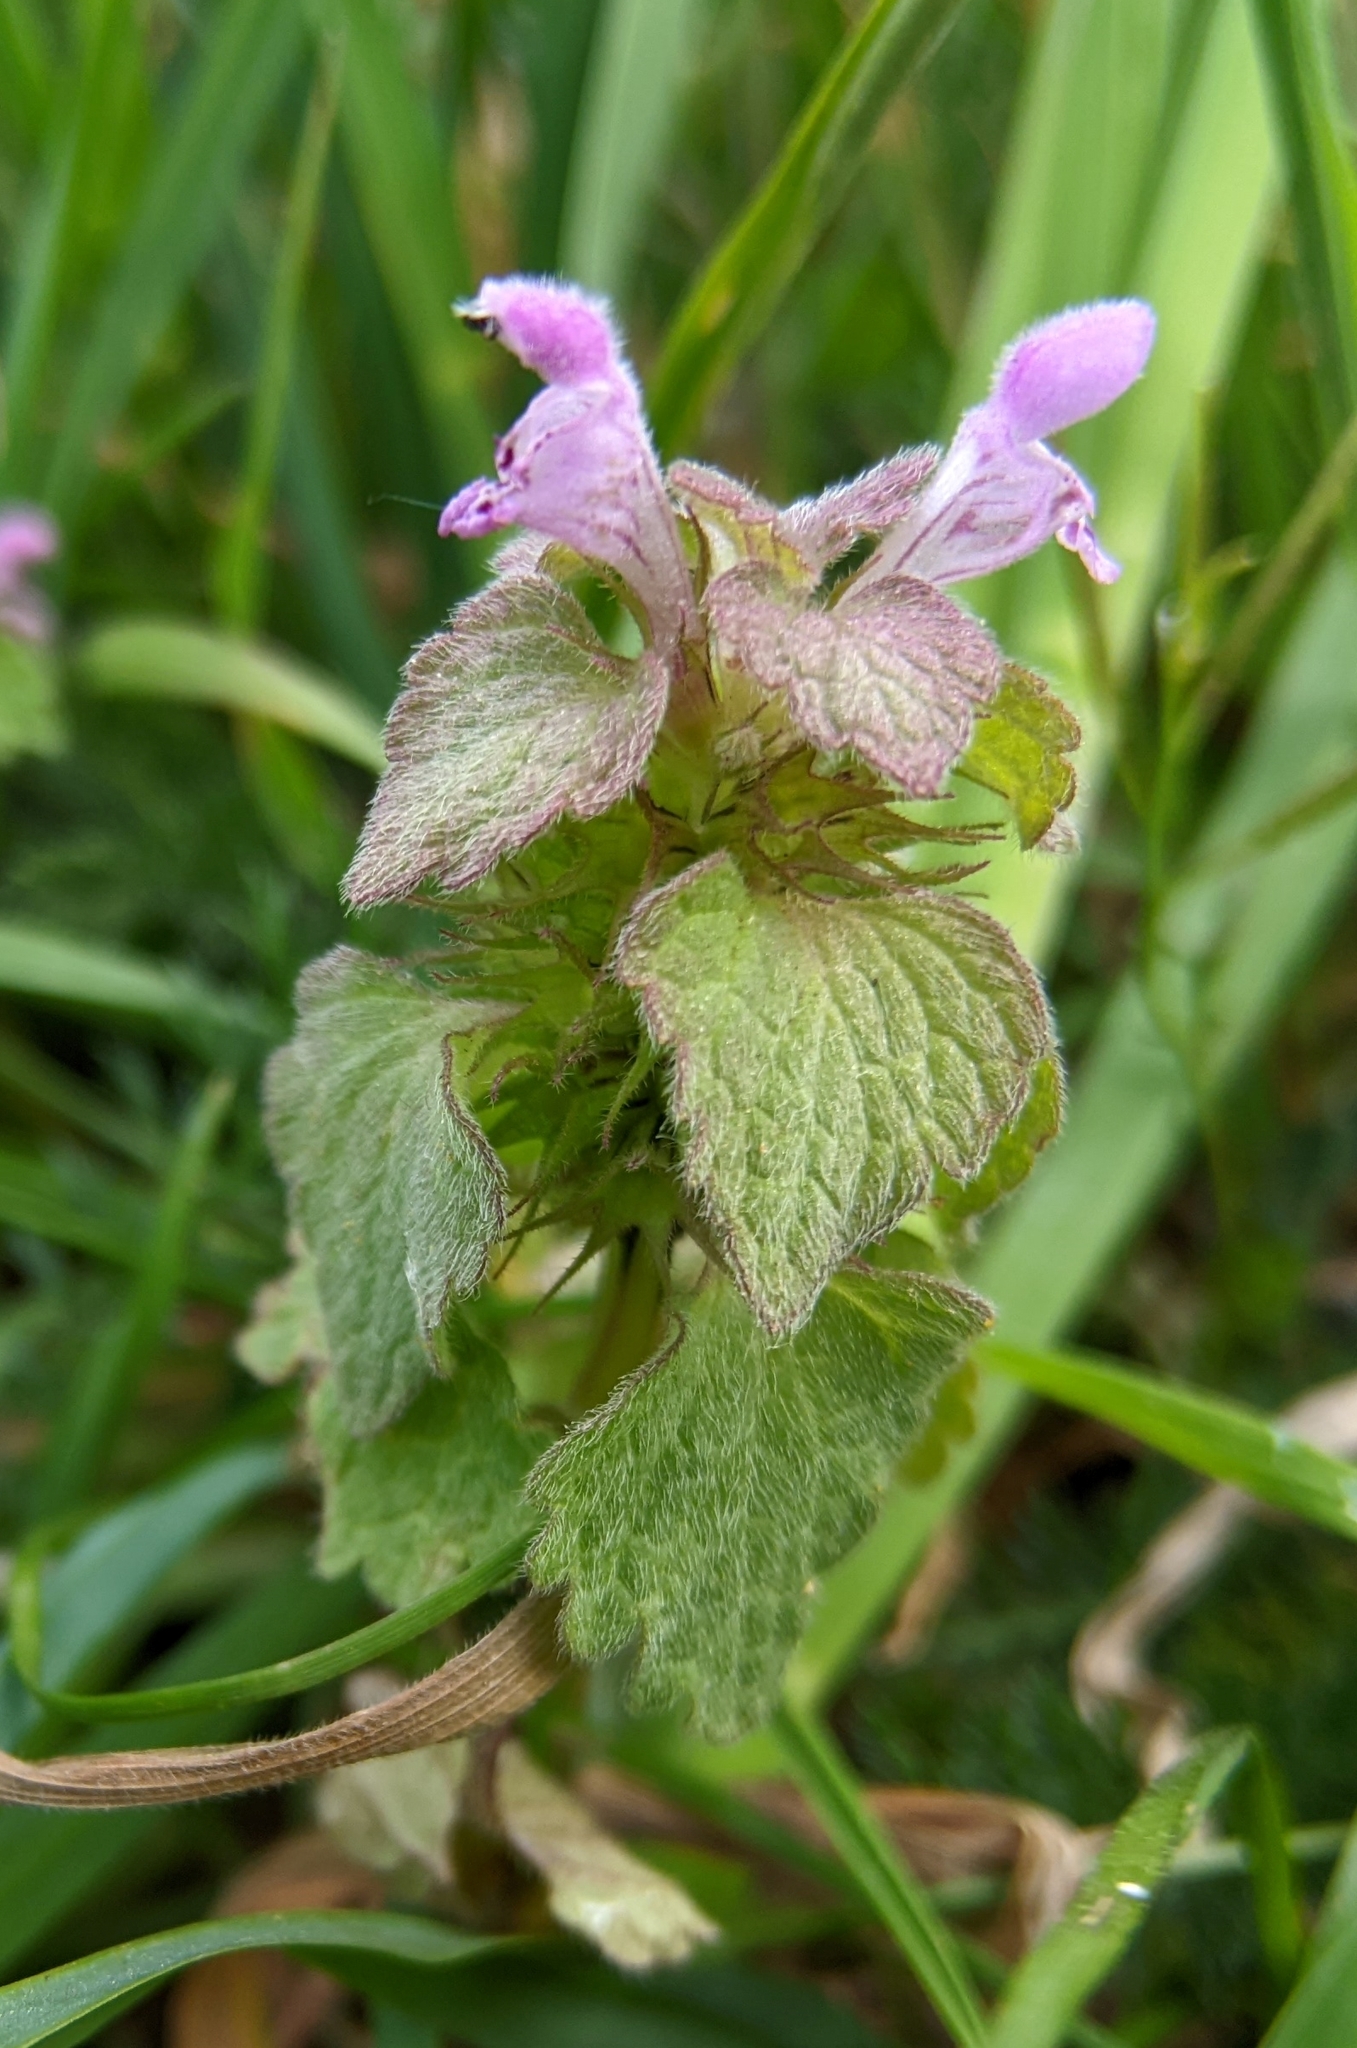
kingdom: Plantae
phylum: Tracheophyta
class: Magnoliopsida
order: Lamiales
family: Lamiaceae
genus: Lamium
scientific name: Lamium purpureum
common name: Red dead-nettle
